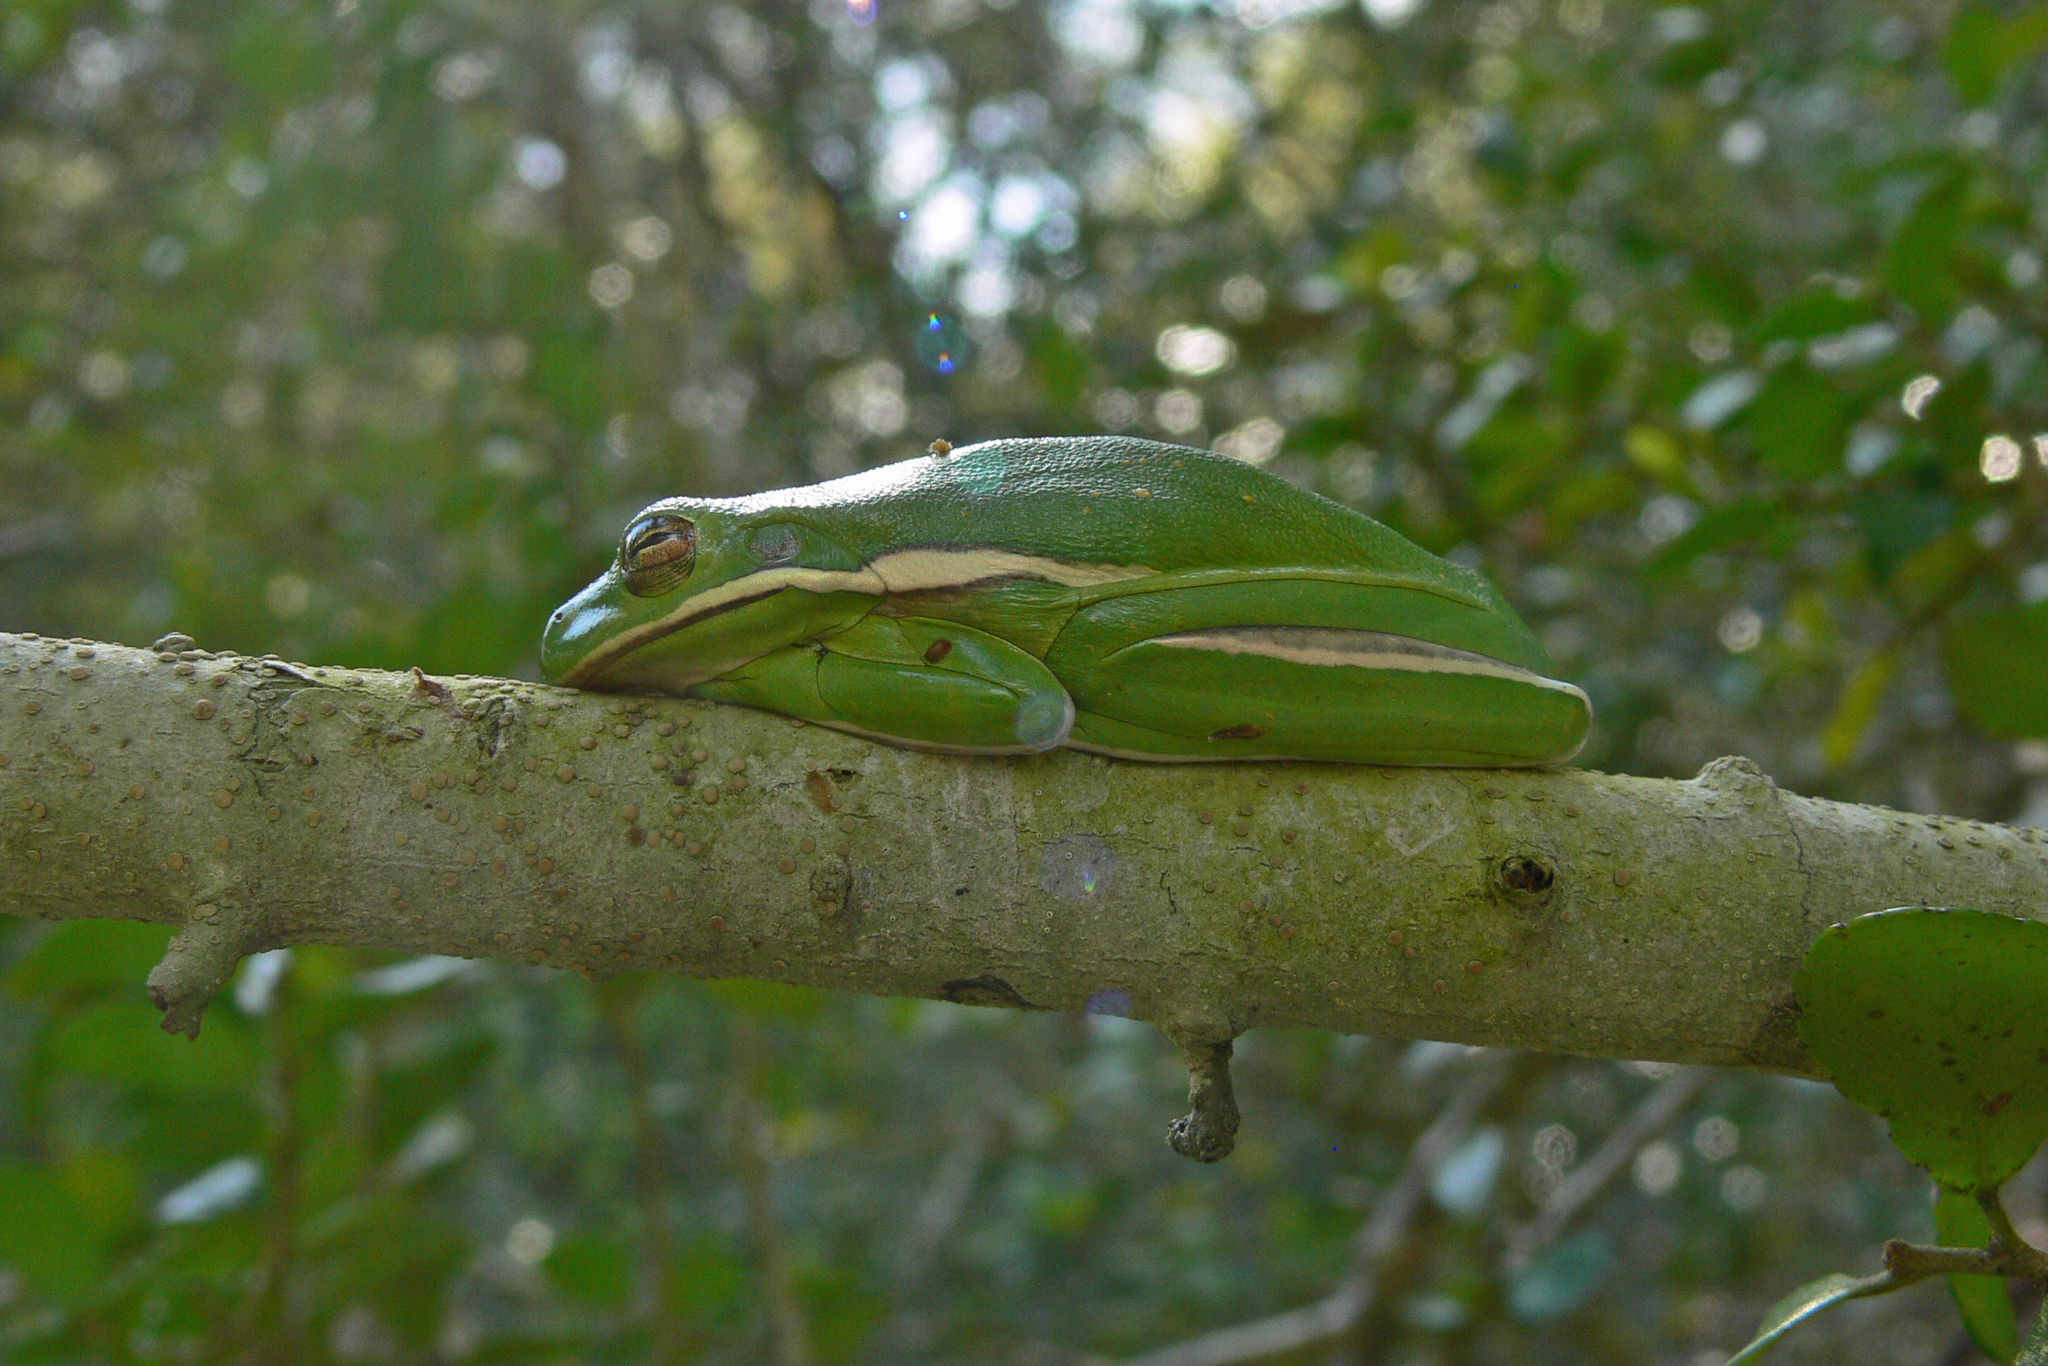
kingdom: Animalia
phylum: Chordata
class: Amphibia
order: Anura
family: Hylidae
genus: Dryophytes
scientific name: Dryophytes cinereus
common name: Green treefrog
